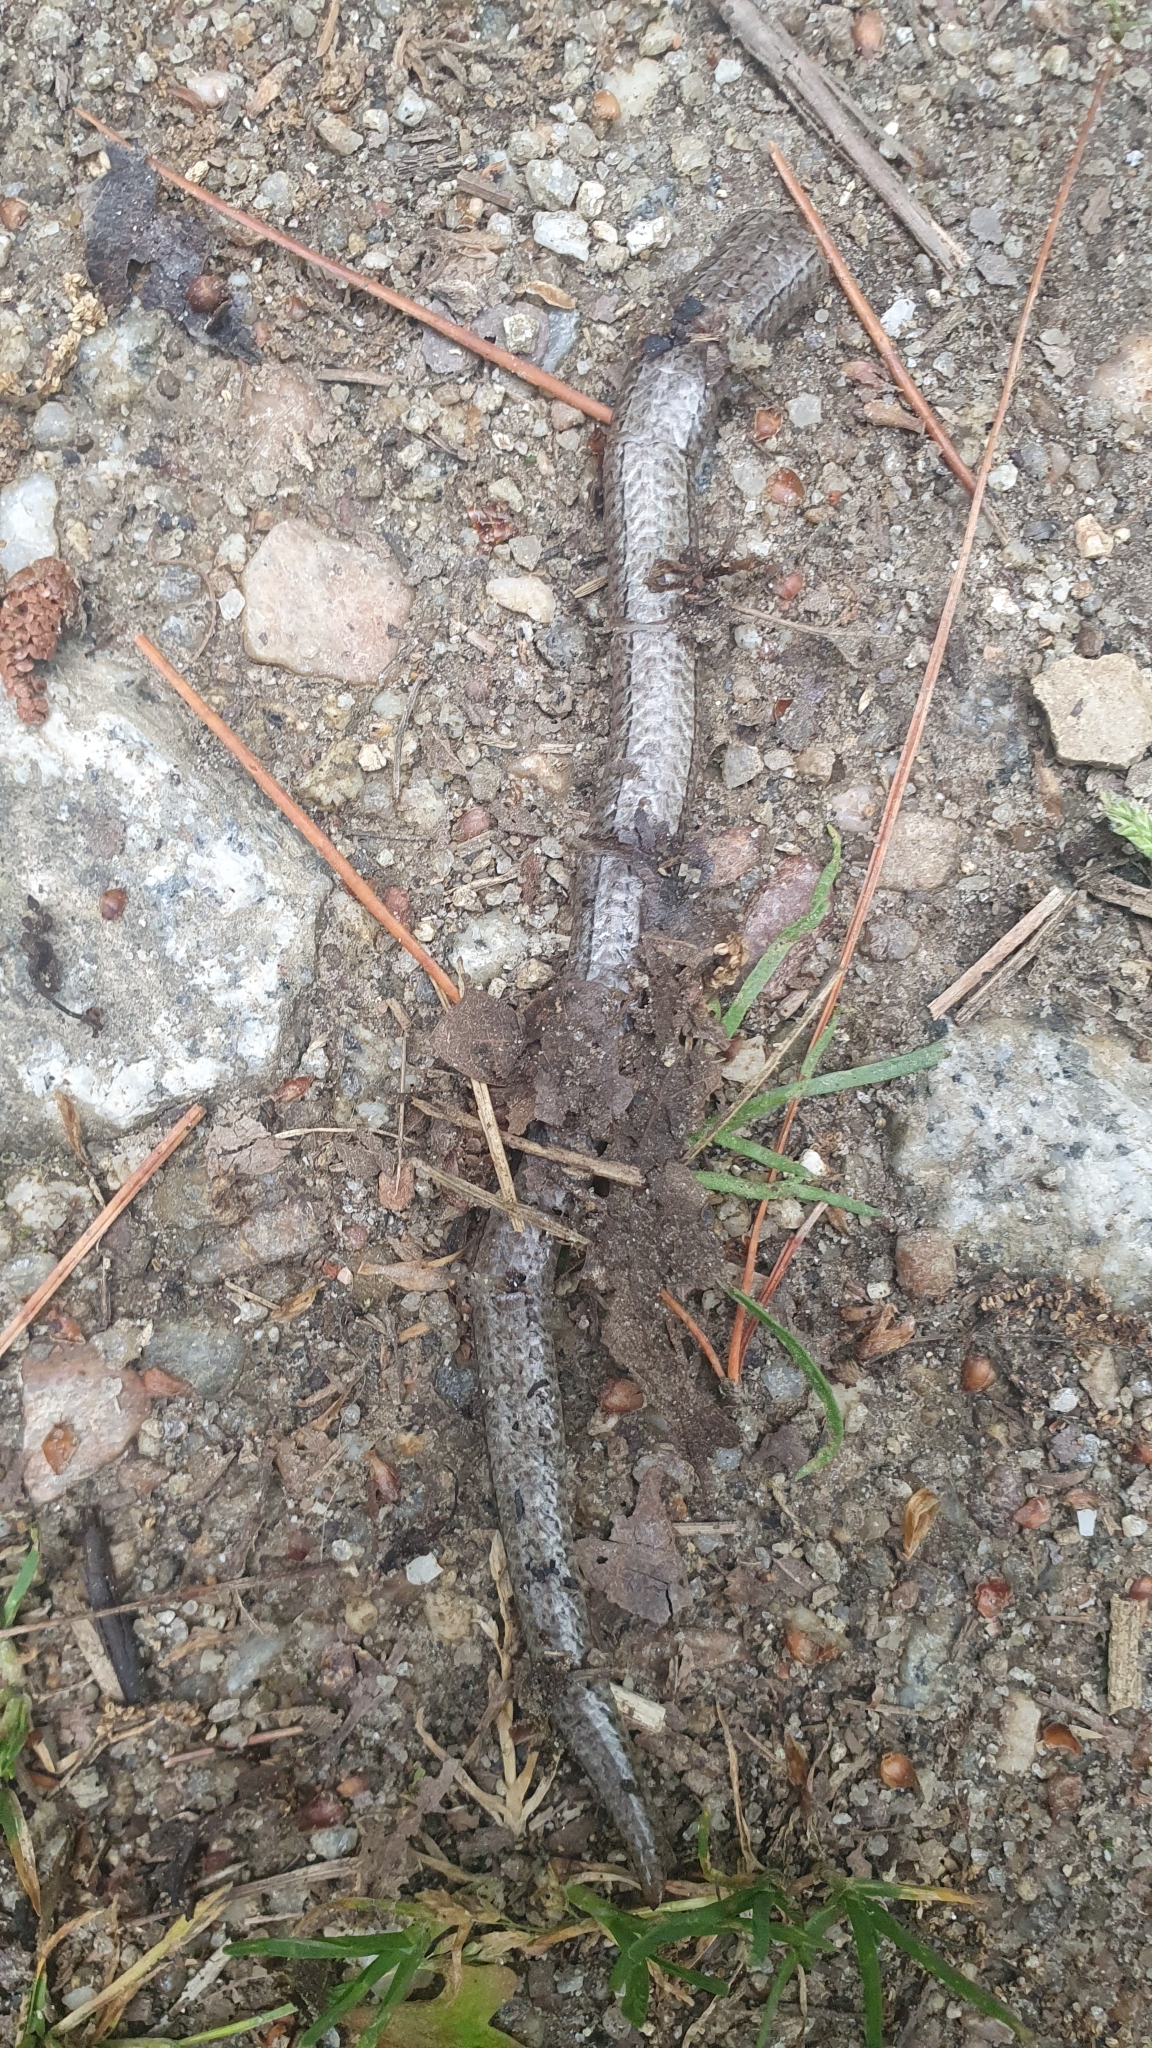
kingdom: Animalia
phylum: Chordata
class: Squamata
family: Anguidae
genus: Anguis
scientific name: Anguis fragilis
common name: Slow worm
